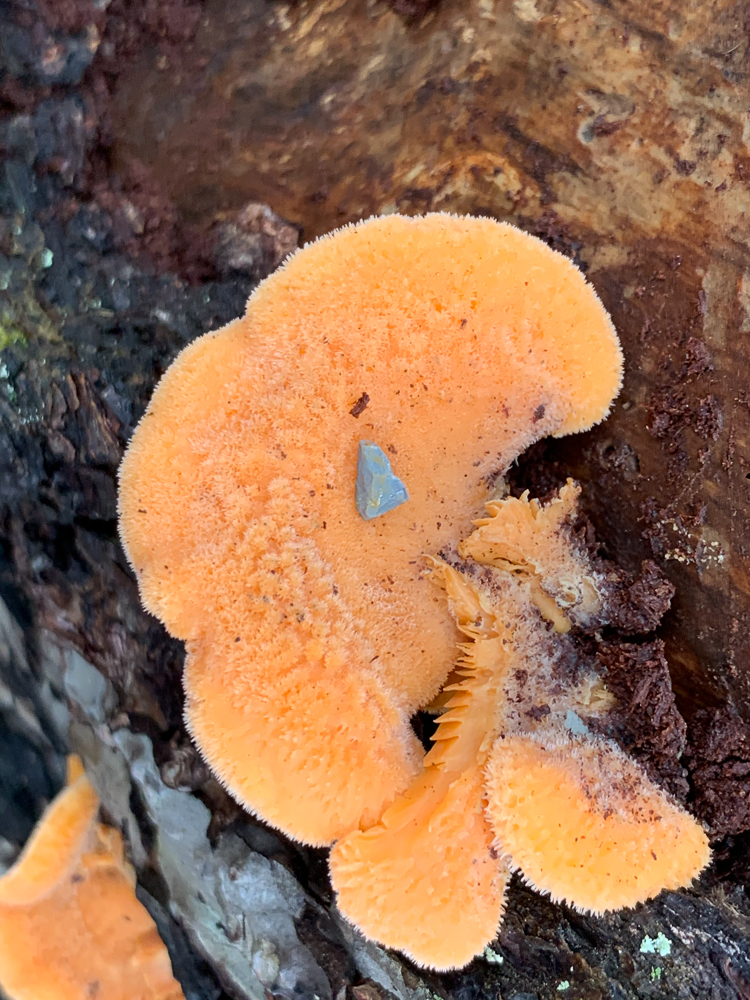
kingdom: Fungi
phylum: Basidiomycota
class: Agaricomycetes
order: Agaricales
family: Phyllotopsidaceae
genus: Phyllotopsis
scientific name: Phyllotopsis nidulans
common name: Orange mock oyster
